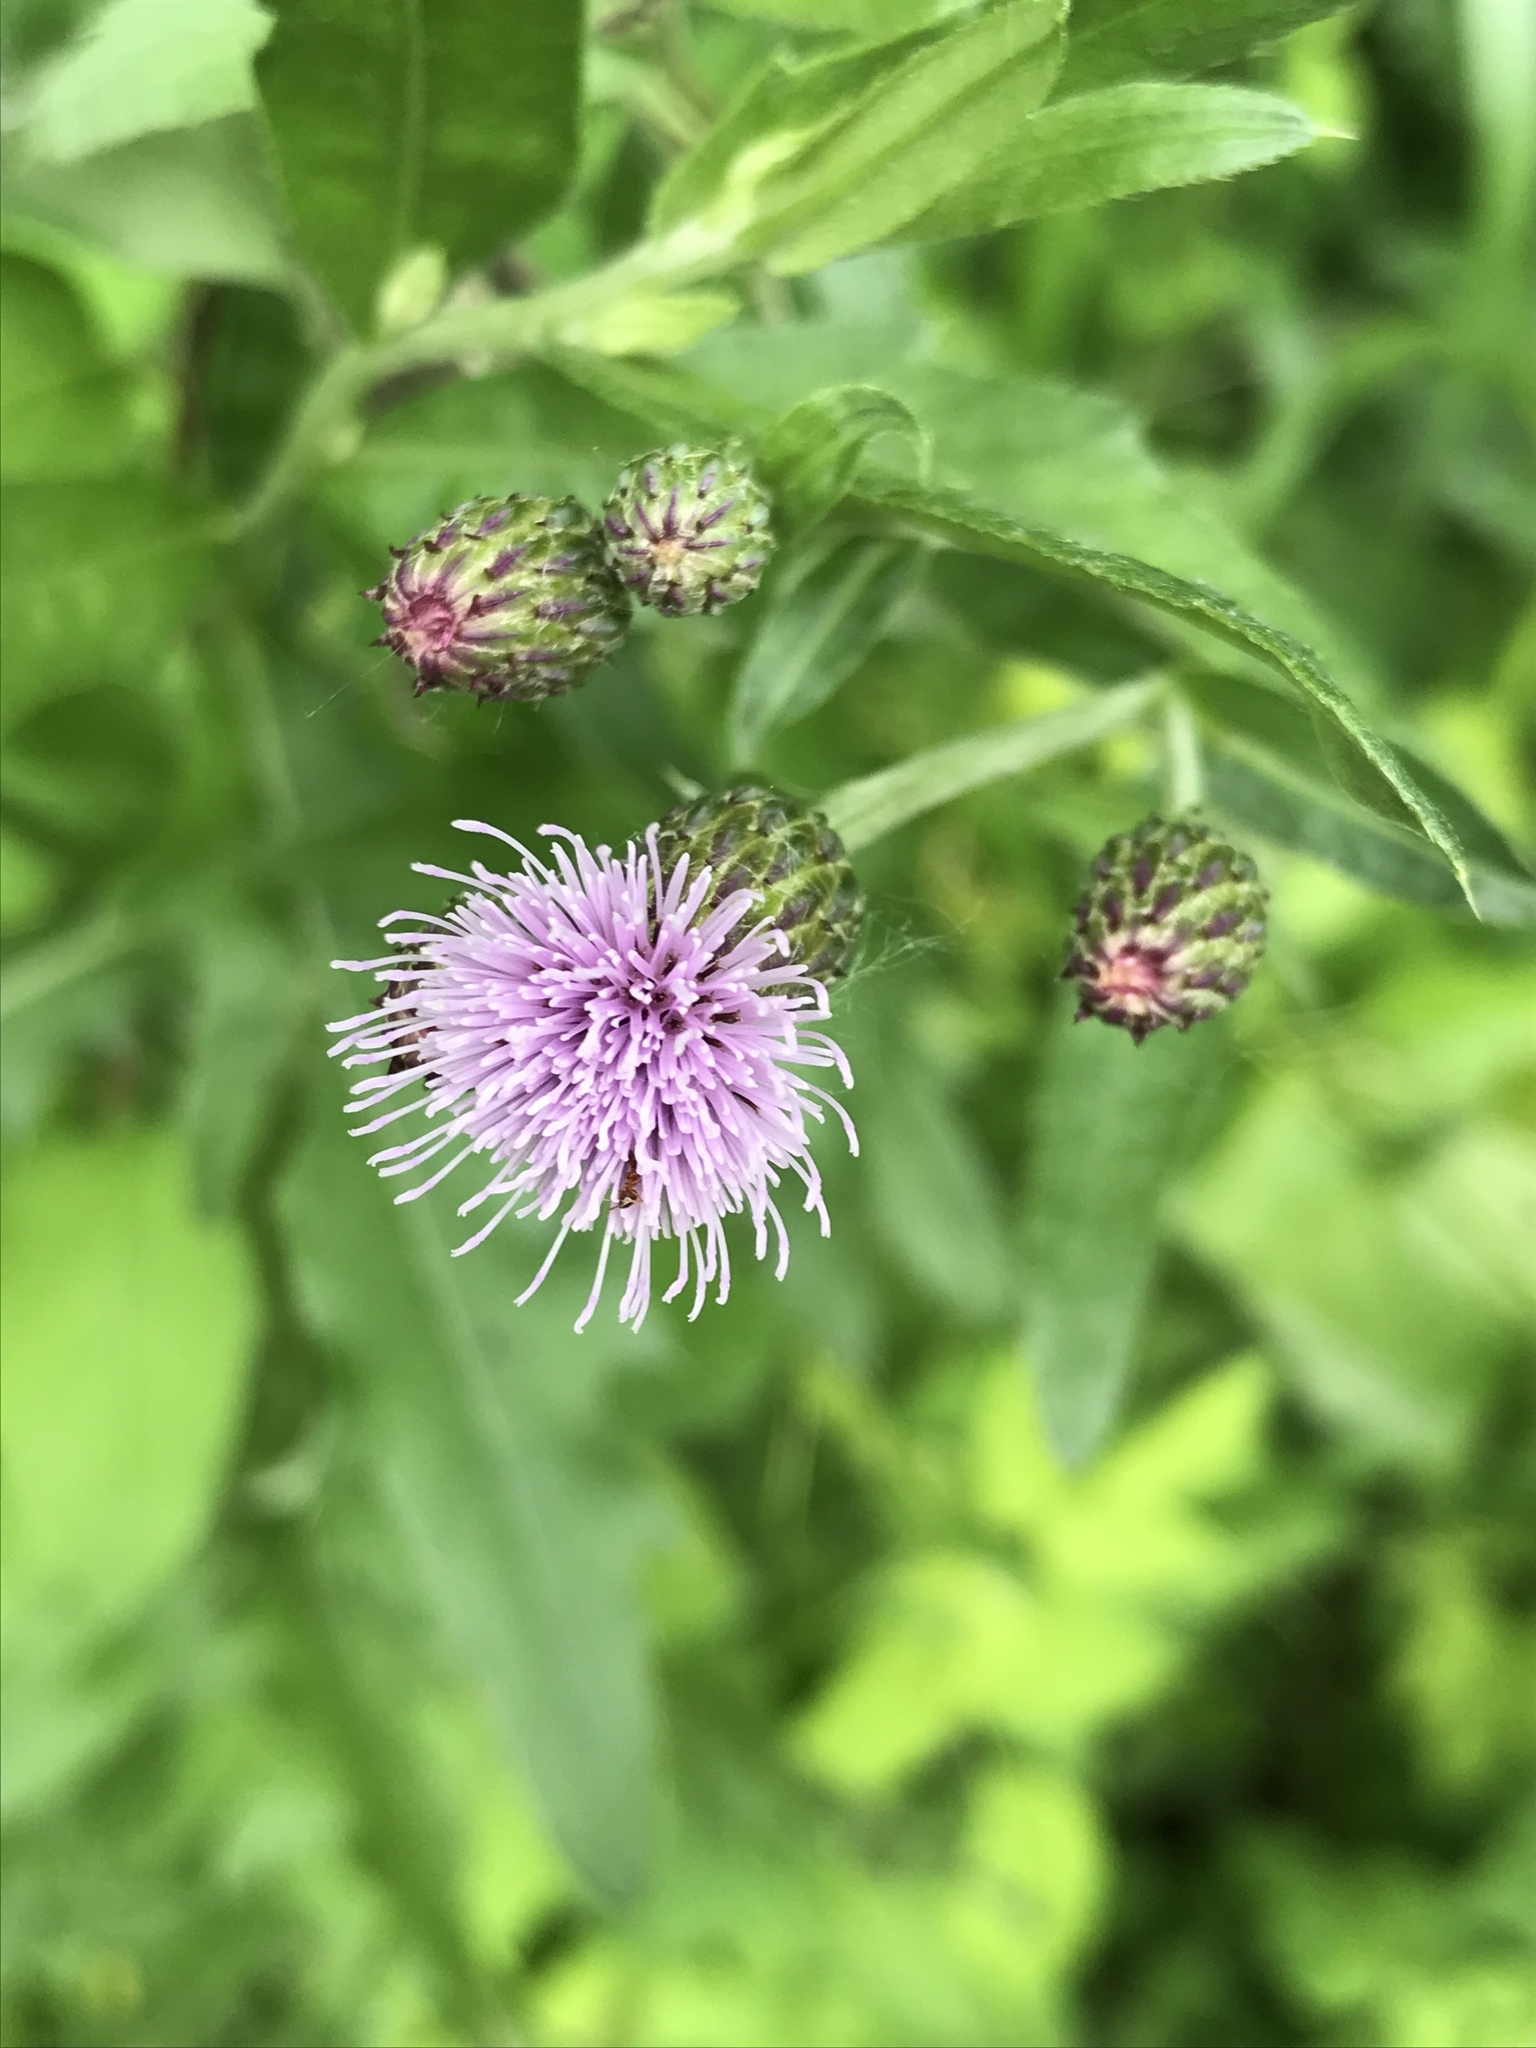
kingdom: Plantae
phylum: Tracheophyta
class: Magnoliopsida
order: Asterales
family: Asteraceae
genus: Cirsium
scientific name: Cirsium arvense
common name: Creeping thistle
